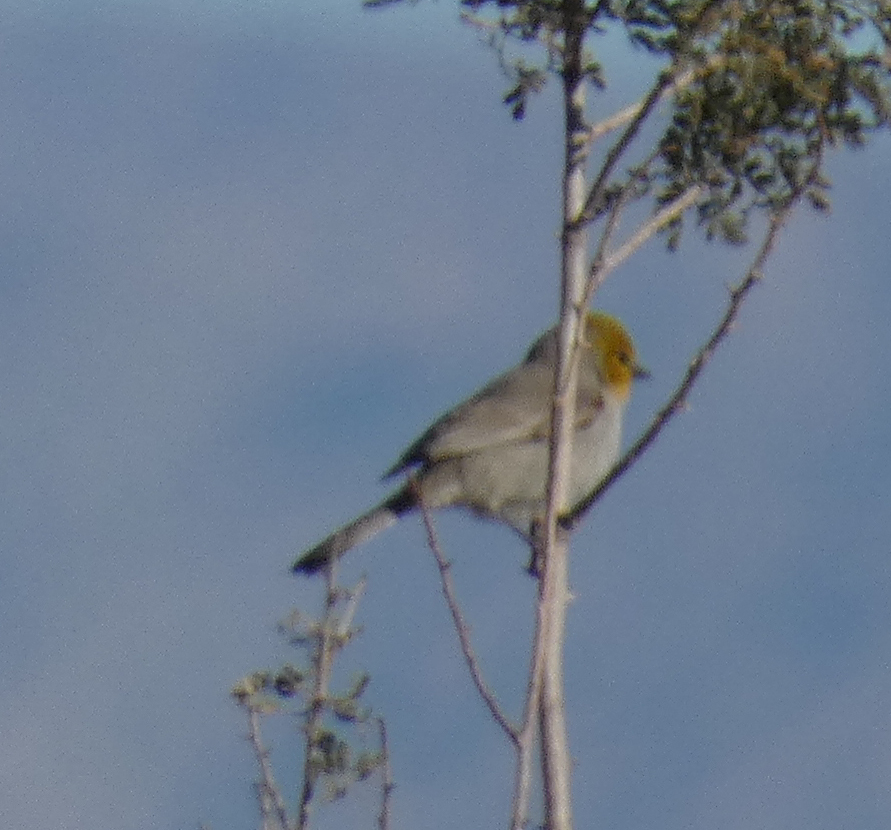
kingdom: Animalia
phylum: Chordata
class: Aves
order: Passeriformes
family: Remizidae
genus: Auriparus
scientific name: Auriparus flaviceps
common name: Verdin
